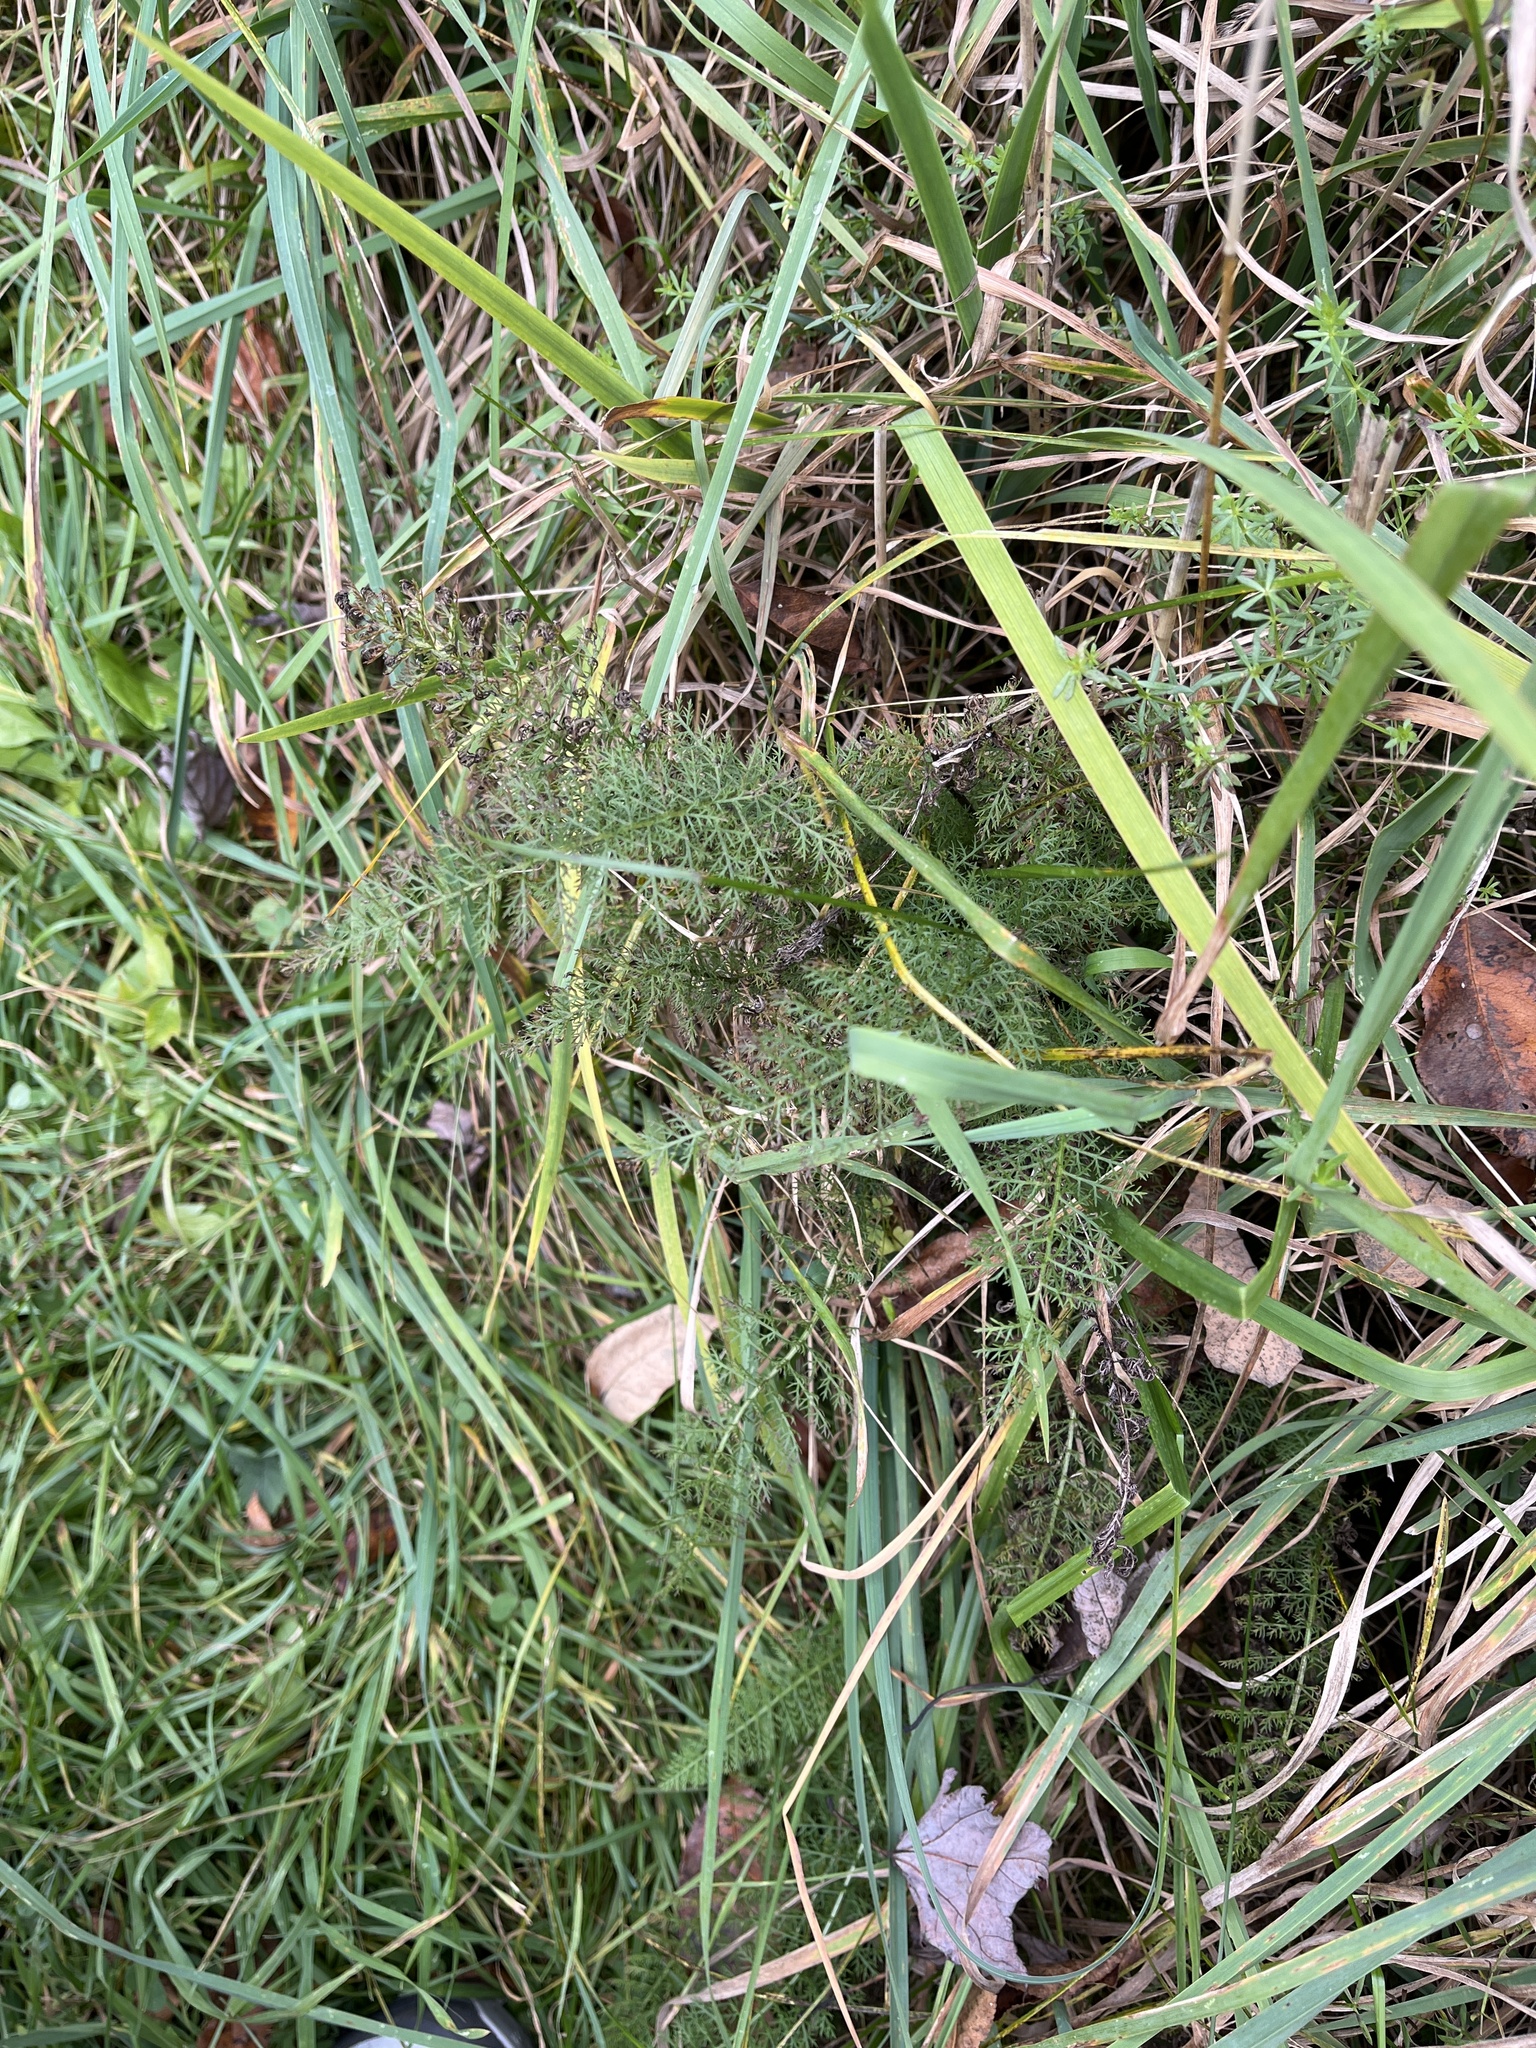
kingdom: Plantae
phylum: Tracheophyta
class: Magnoliopsida
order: Asterales
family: Asteraceae
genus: Achillea
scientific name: Achillea millefolium
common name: Yarrow
